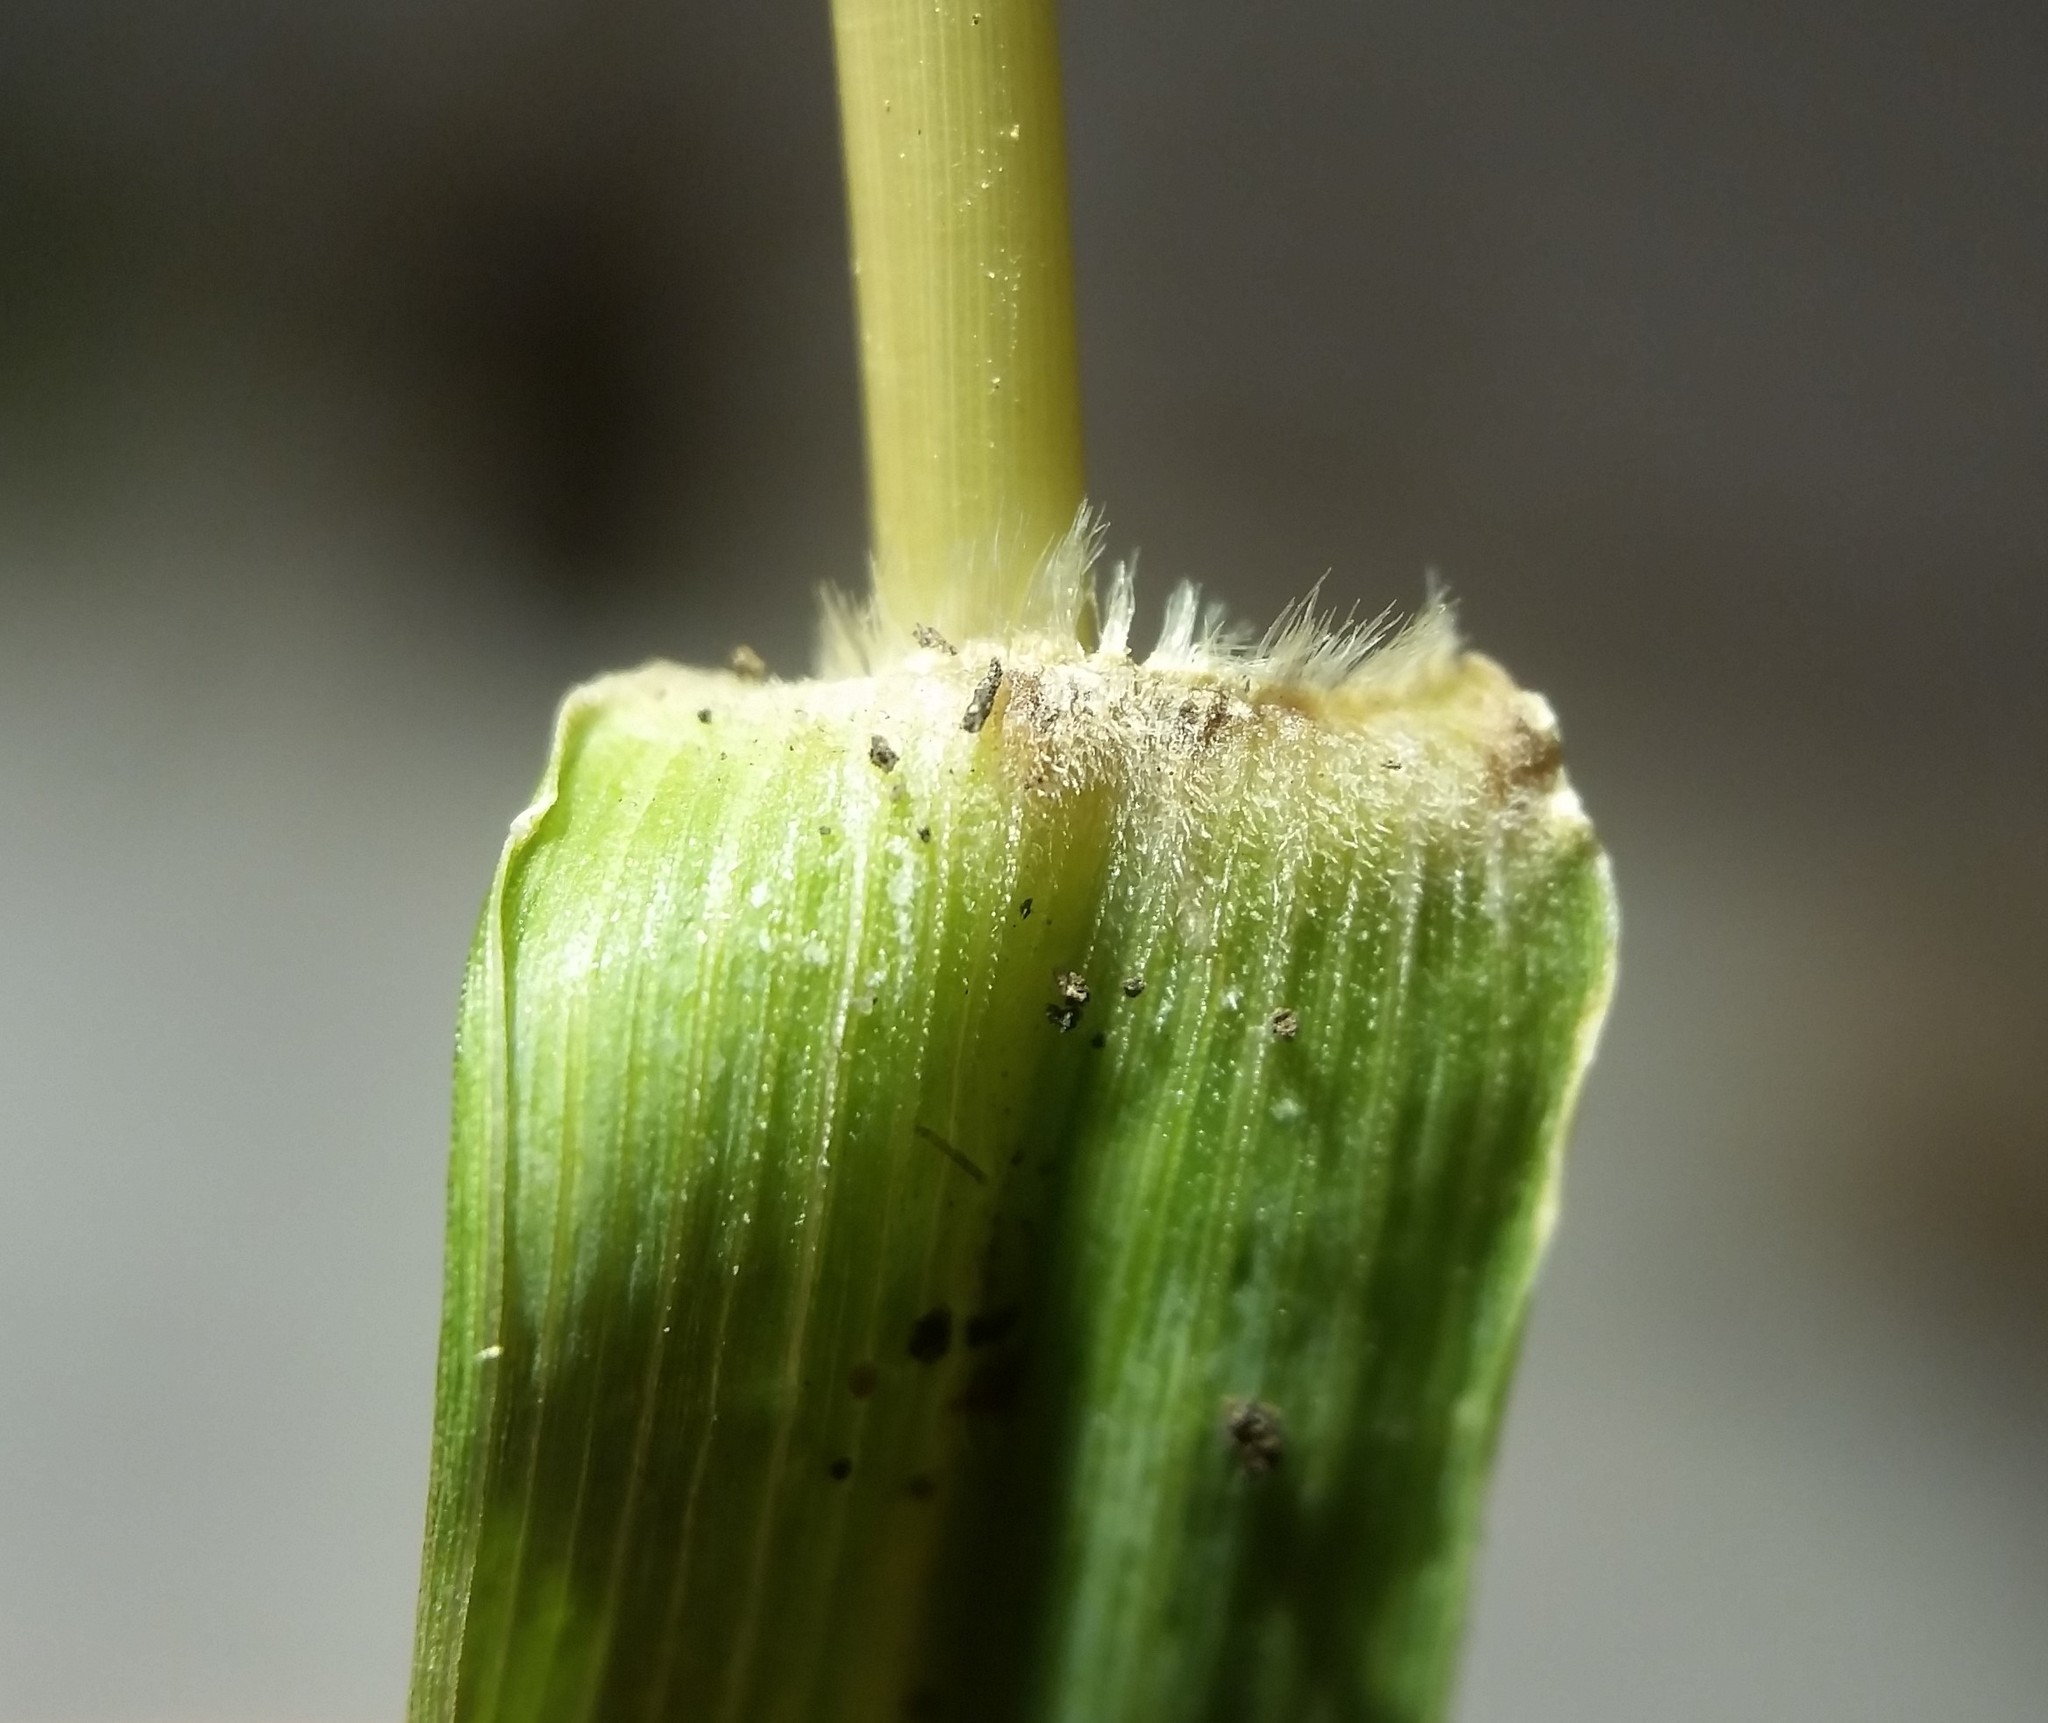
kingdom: Plantae
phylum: Tracheophyta
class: Liliopsida
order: Poales
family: Poaceae
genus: Setaria
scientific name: Setaria sphacelata
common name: African bristlegrass
